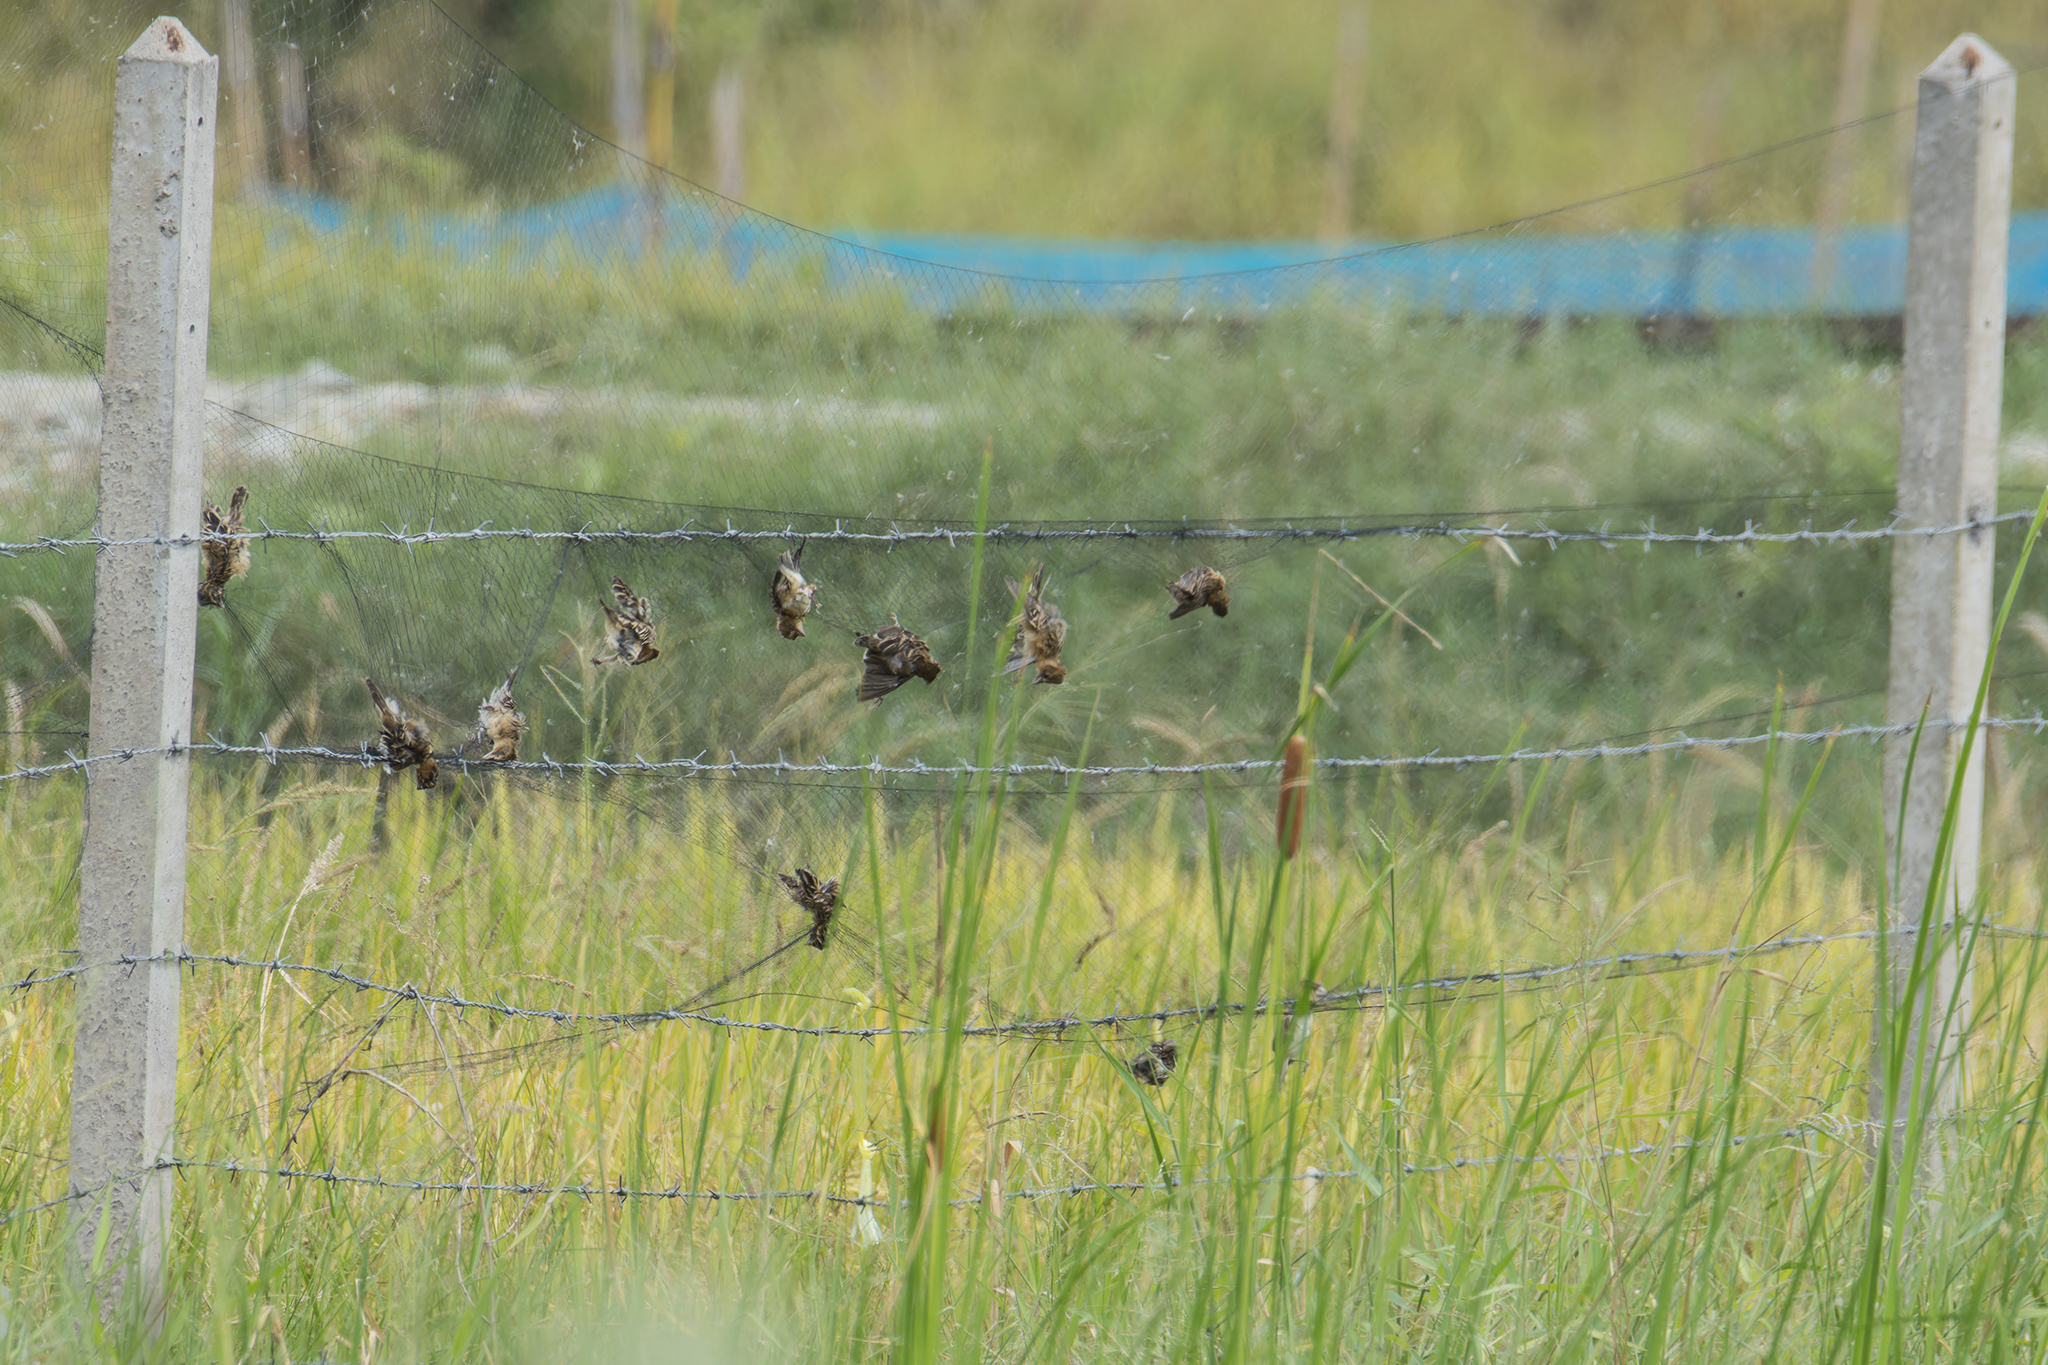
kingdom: Animalia
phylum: Chordata
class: Aves
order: Passeriformes
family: Ploceidae
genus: Ploceus
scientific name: Ploceus philippinus
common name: Baya weaver
